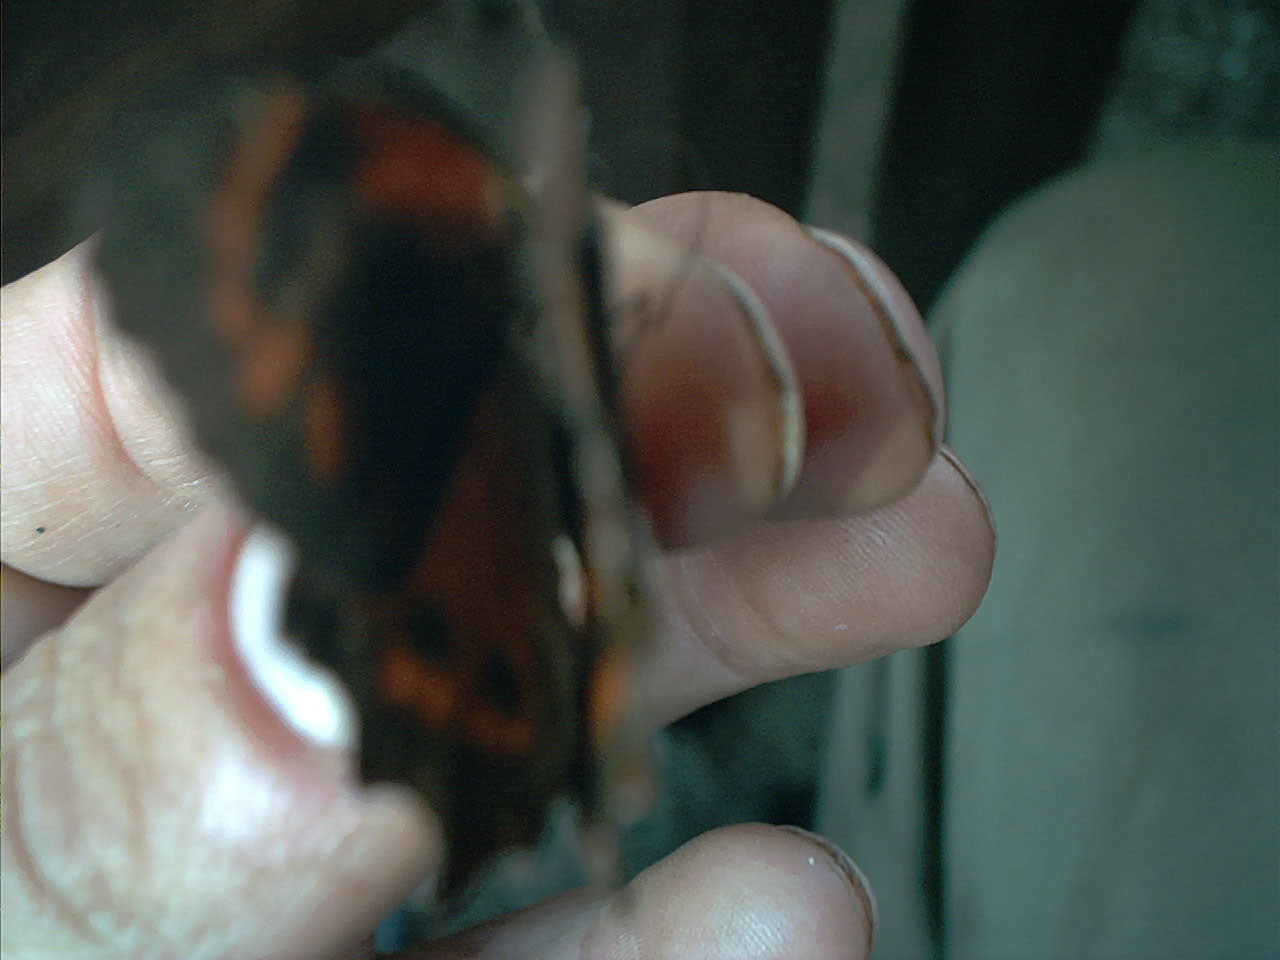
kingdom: Animalia
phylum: Arthropoda
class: Insecta
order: Lepidoptera
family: Nymphalidae
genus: Lasiophila
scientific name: Lasiophila orbifera
